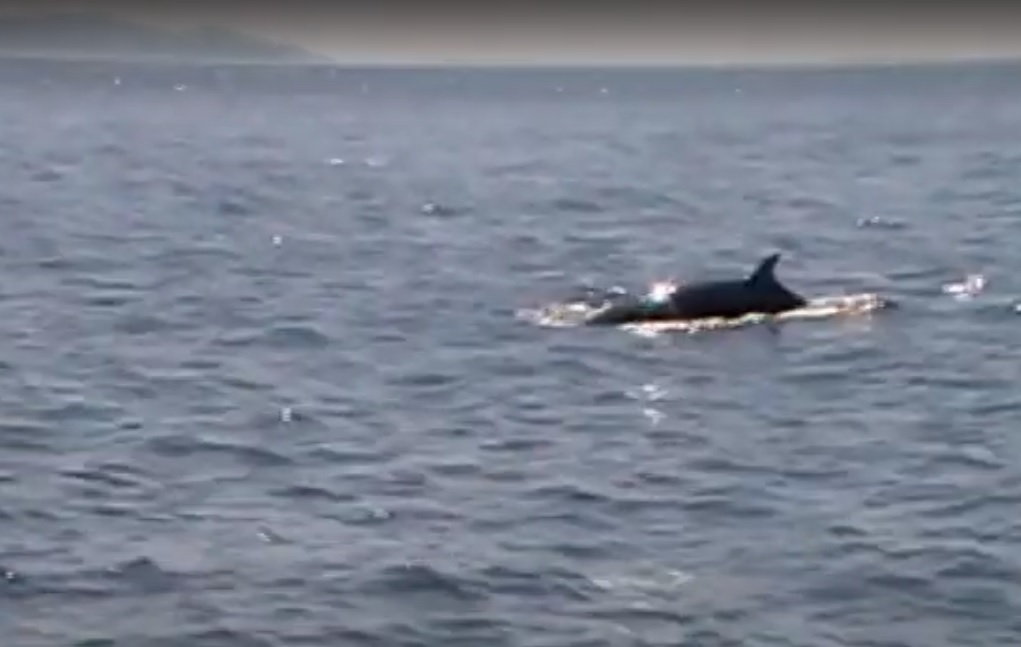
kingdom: Animalia
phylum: Chordata
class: Mammalia
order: Cetacea
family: Balaenopteridae
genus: Balaenoptera
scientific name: Balaenoptera acutorostrata
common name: Common minke whale
